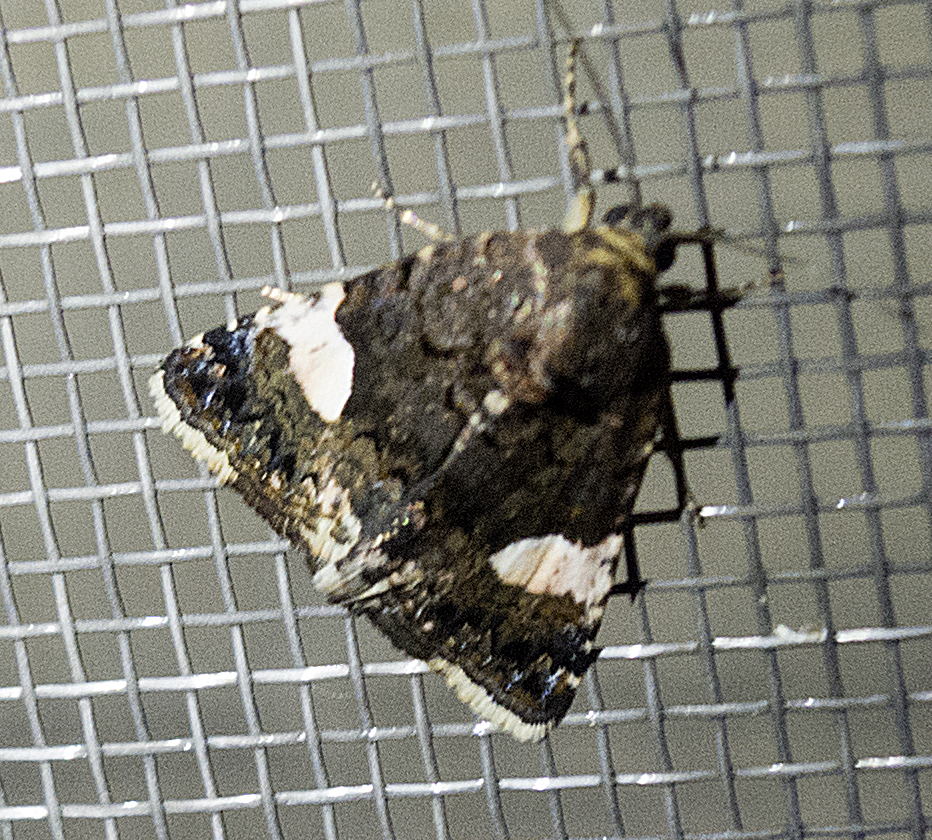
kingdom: Animalia
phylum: Arthropoda
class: Insecta
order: Lepidoptera
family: Erebidae
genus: Tyta
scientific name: Tyta luctuosa
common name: Four-spotted
